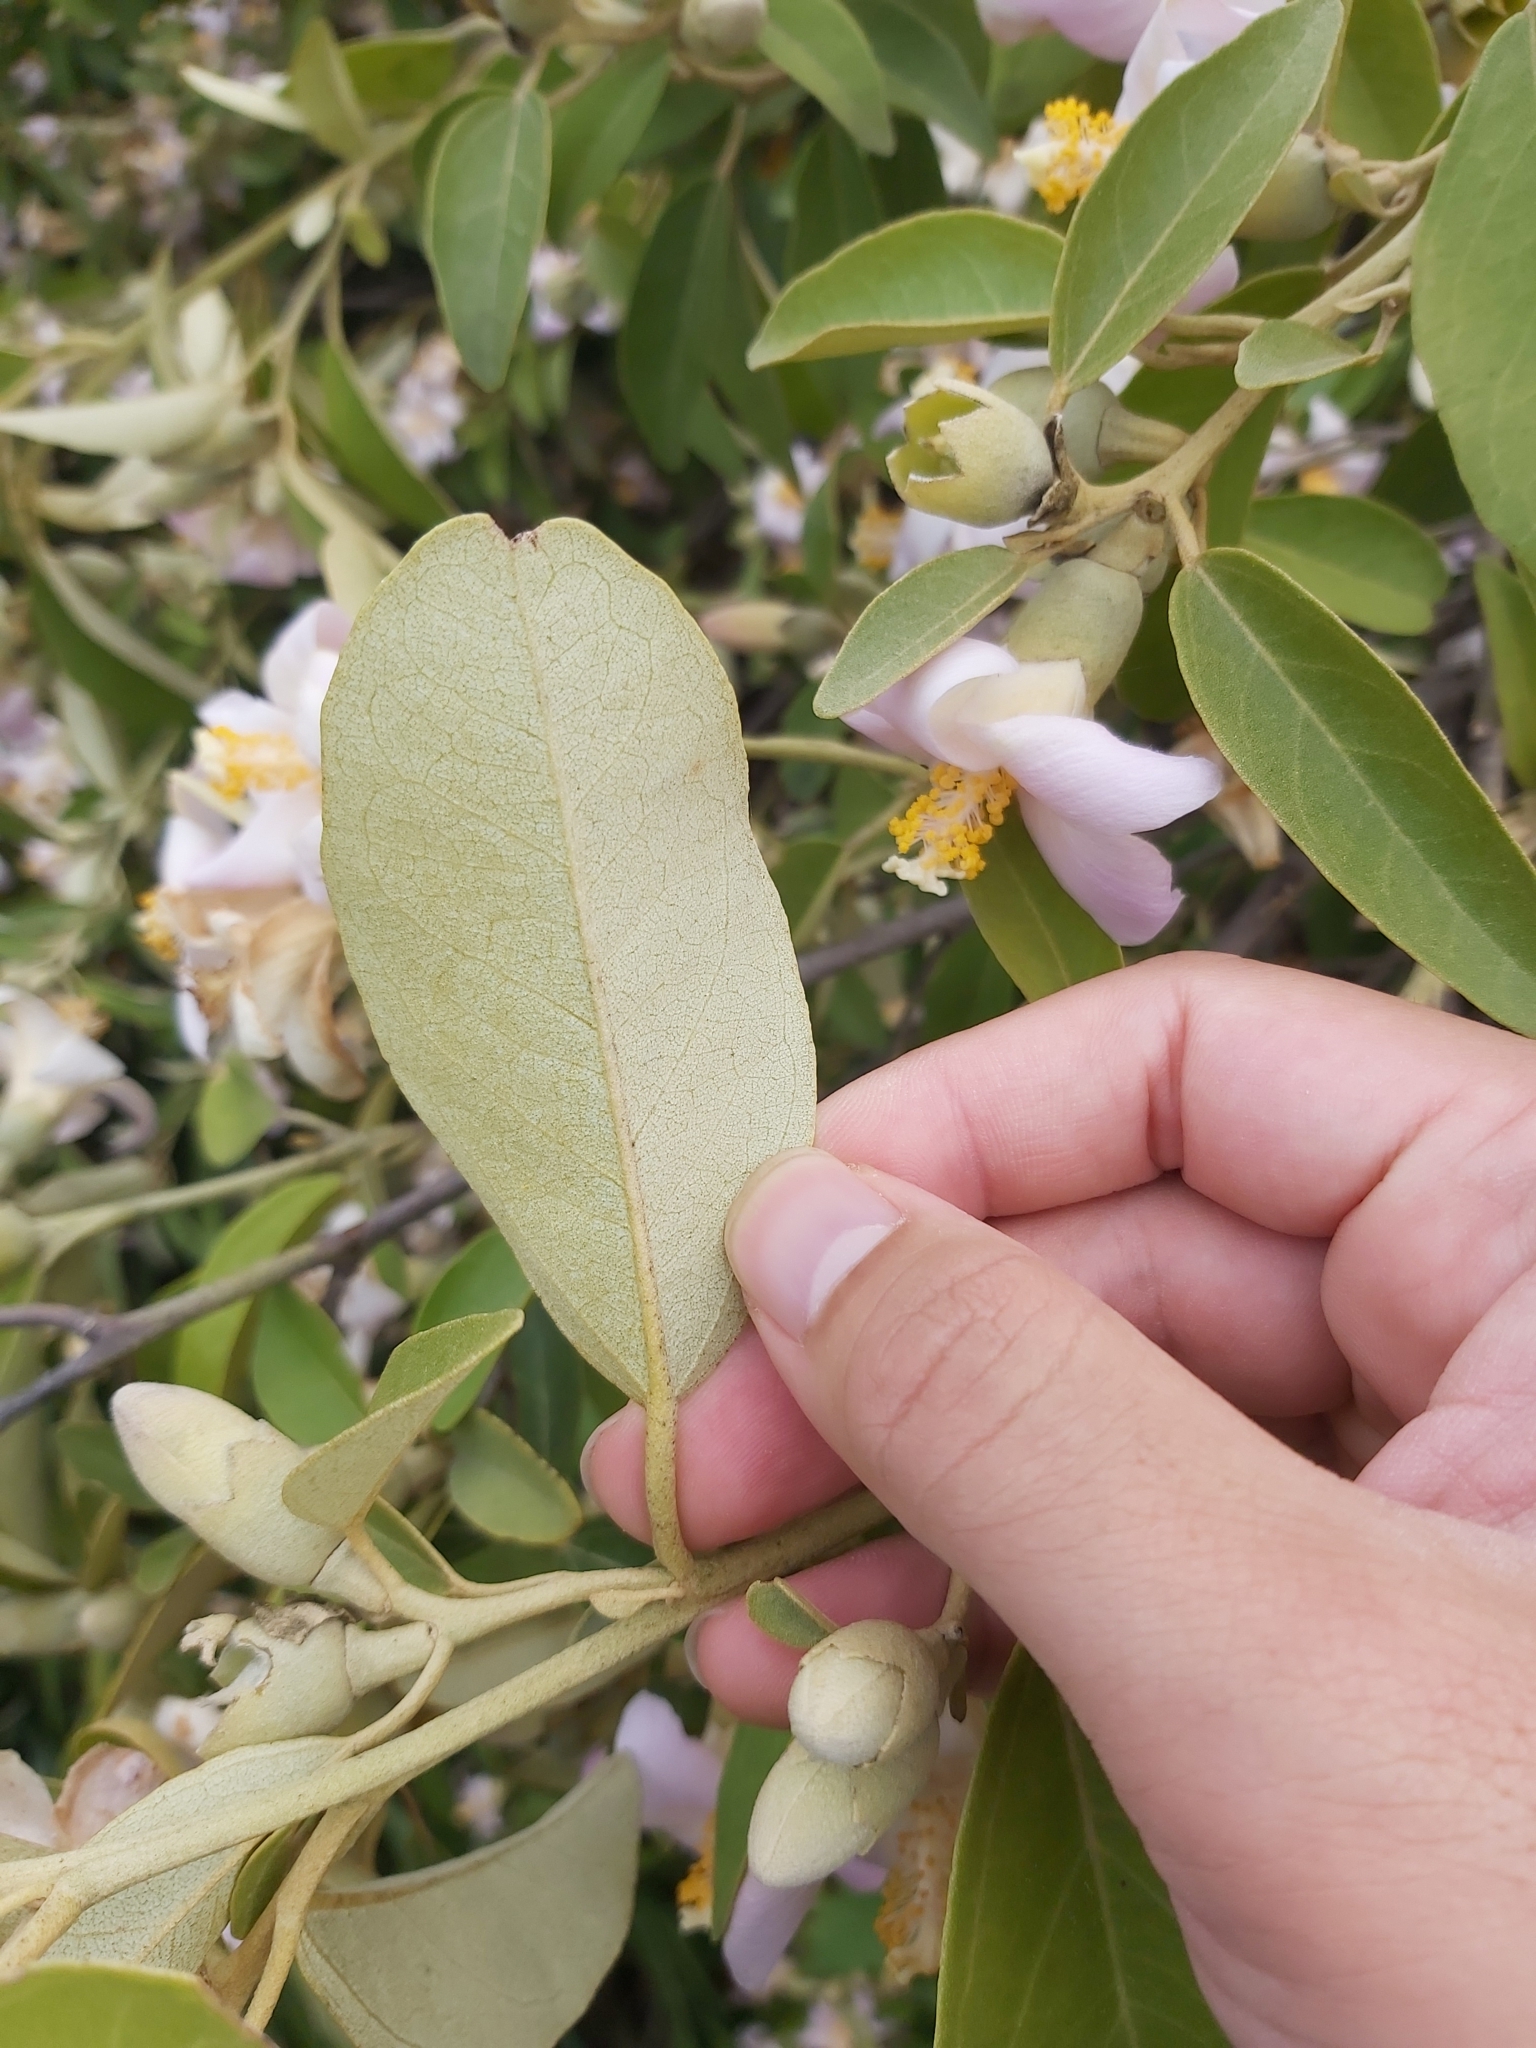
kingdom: Plantae
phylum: Tracheophyta
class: Magnoliopsida
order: Malvales
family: Malvaceae
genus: Lagunaria
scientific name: Lagunaria patersonia
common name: Cow itch tree
